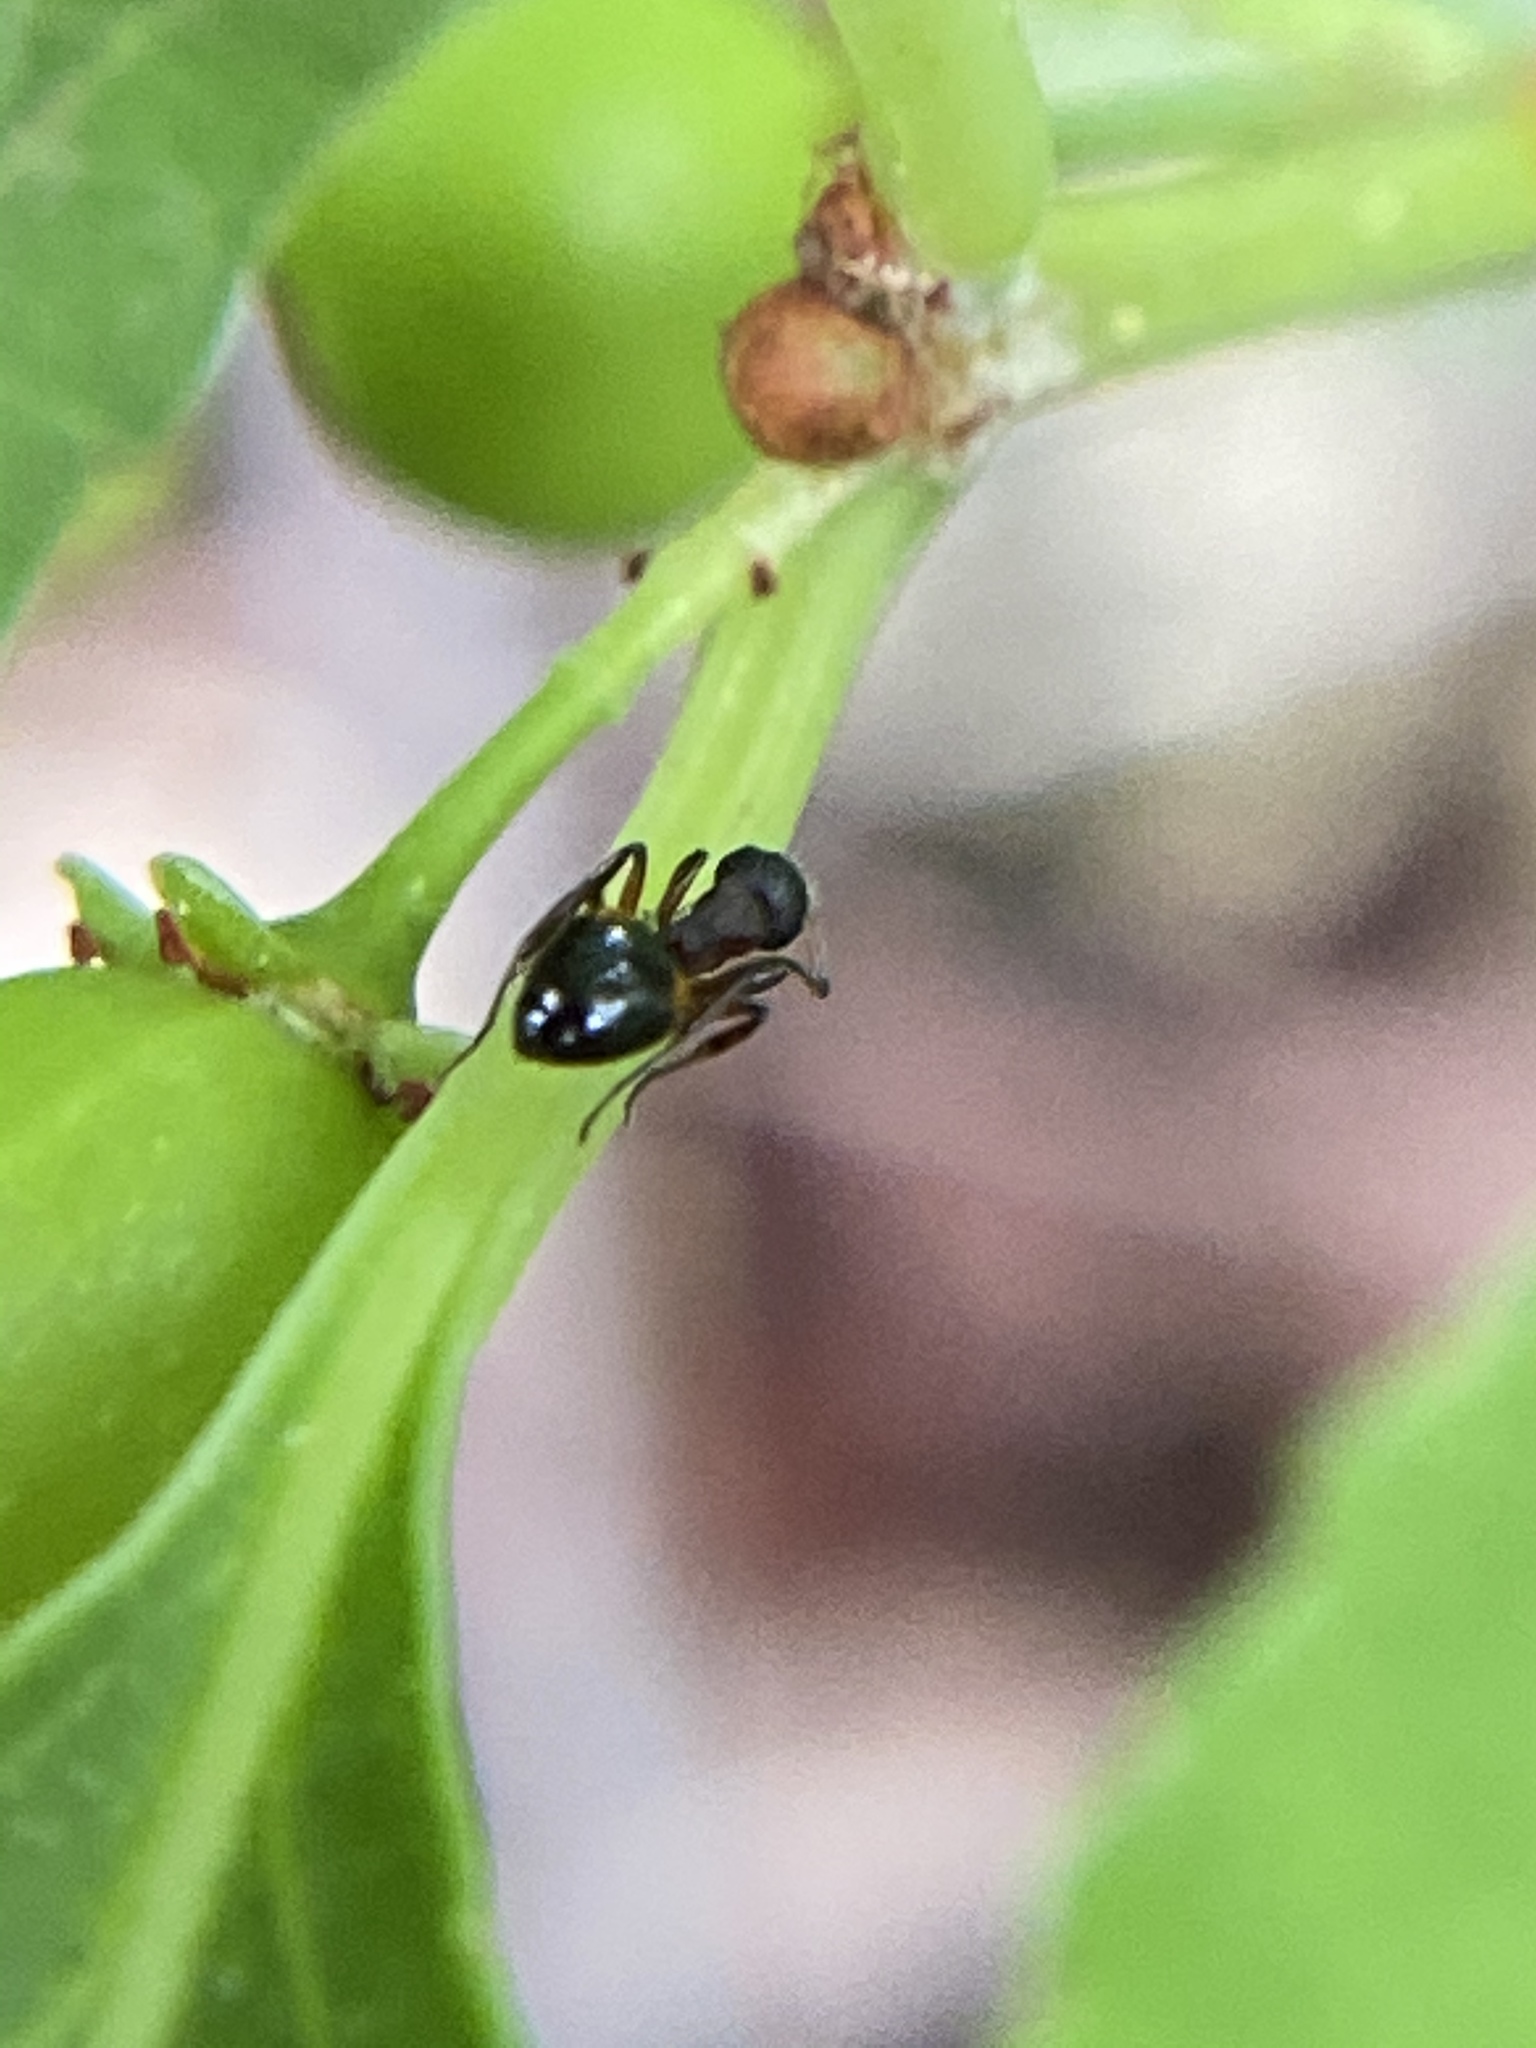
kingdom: Animalia
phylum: Arthropoda
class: Insecta
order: Hymenoptera
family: Formicidae
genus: Dolichoderus
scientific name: Dolichoderus plagiatus
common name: Mottled dolichoderus
